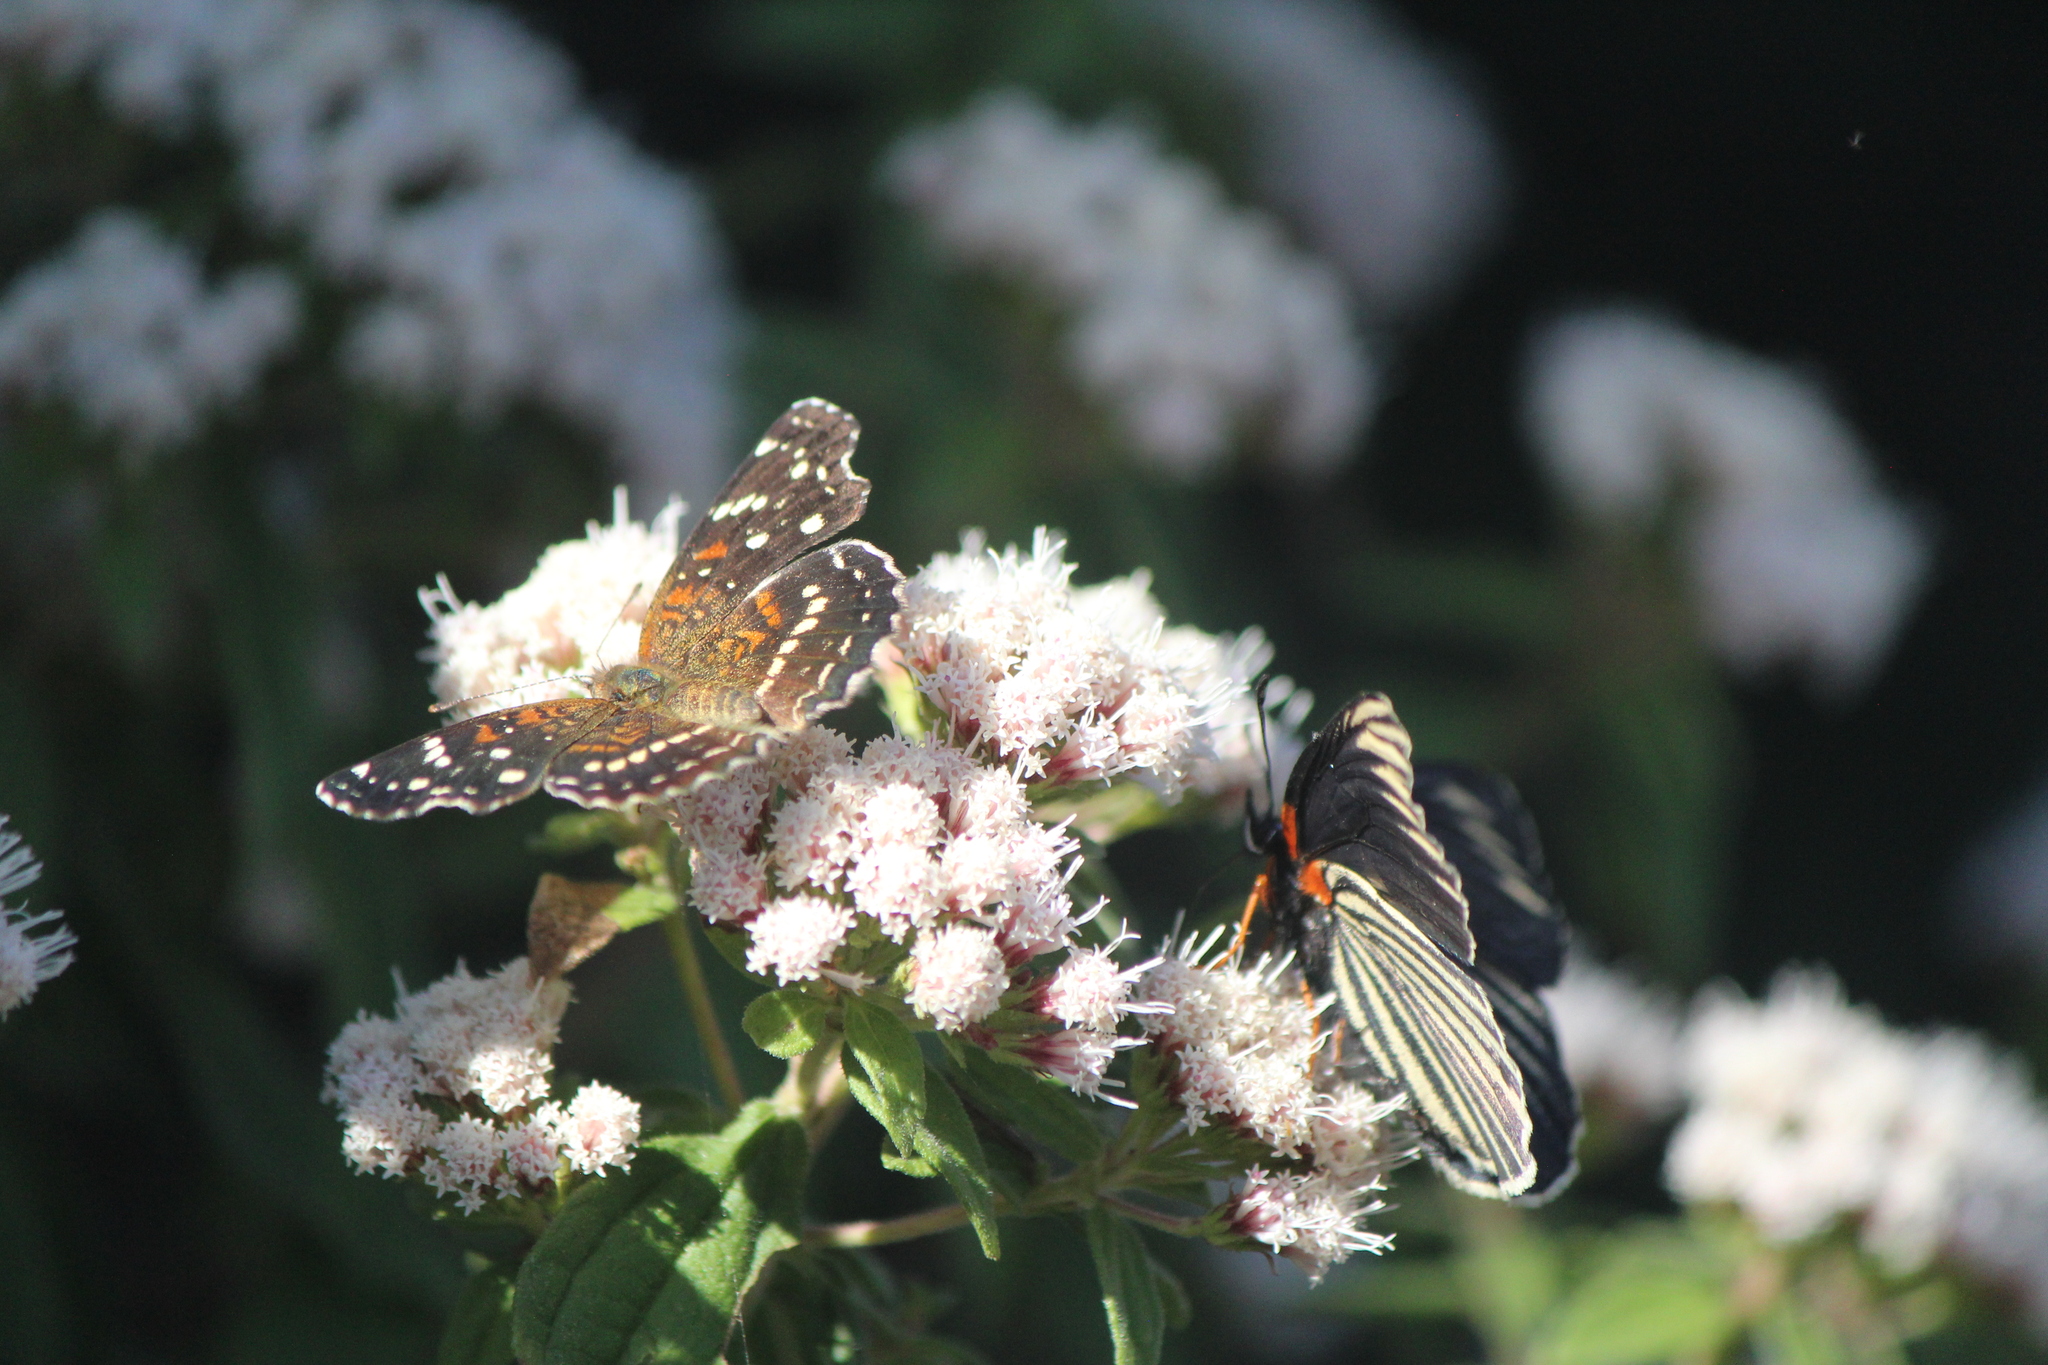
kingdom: Animalia
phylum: Arthropoda
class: Insecta
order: Lepidoptera
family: Nymphalidae
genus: Anthanassa
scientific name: Anthanassa texana
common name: Texan crescent
